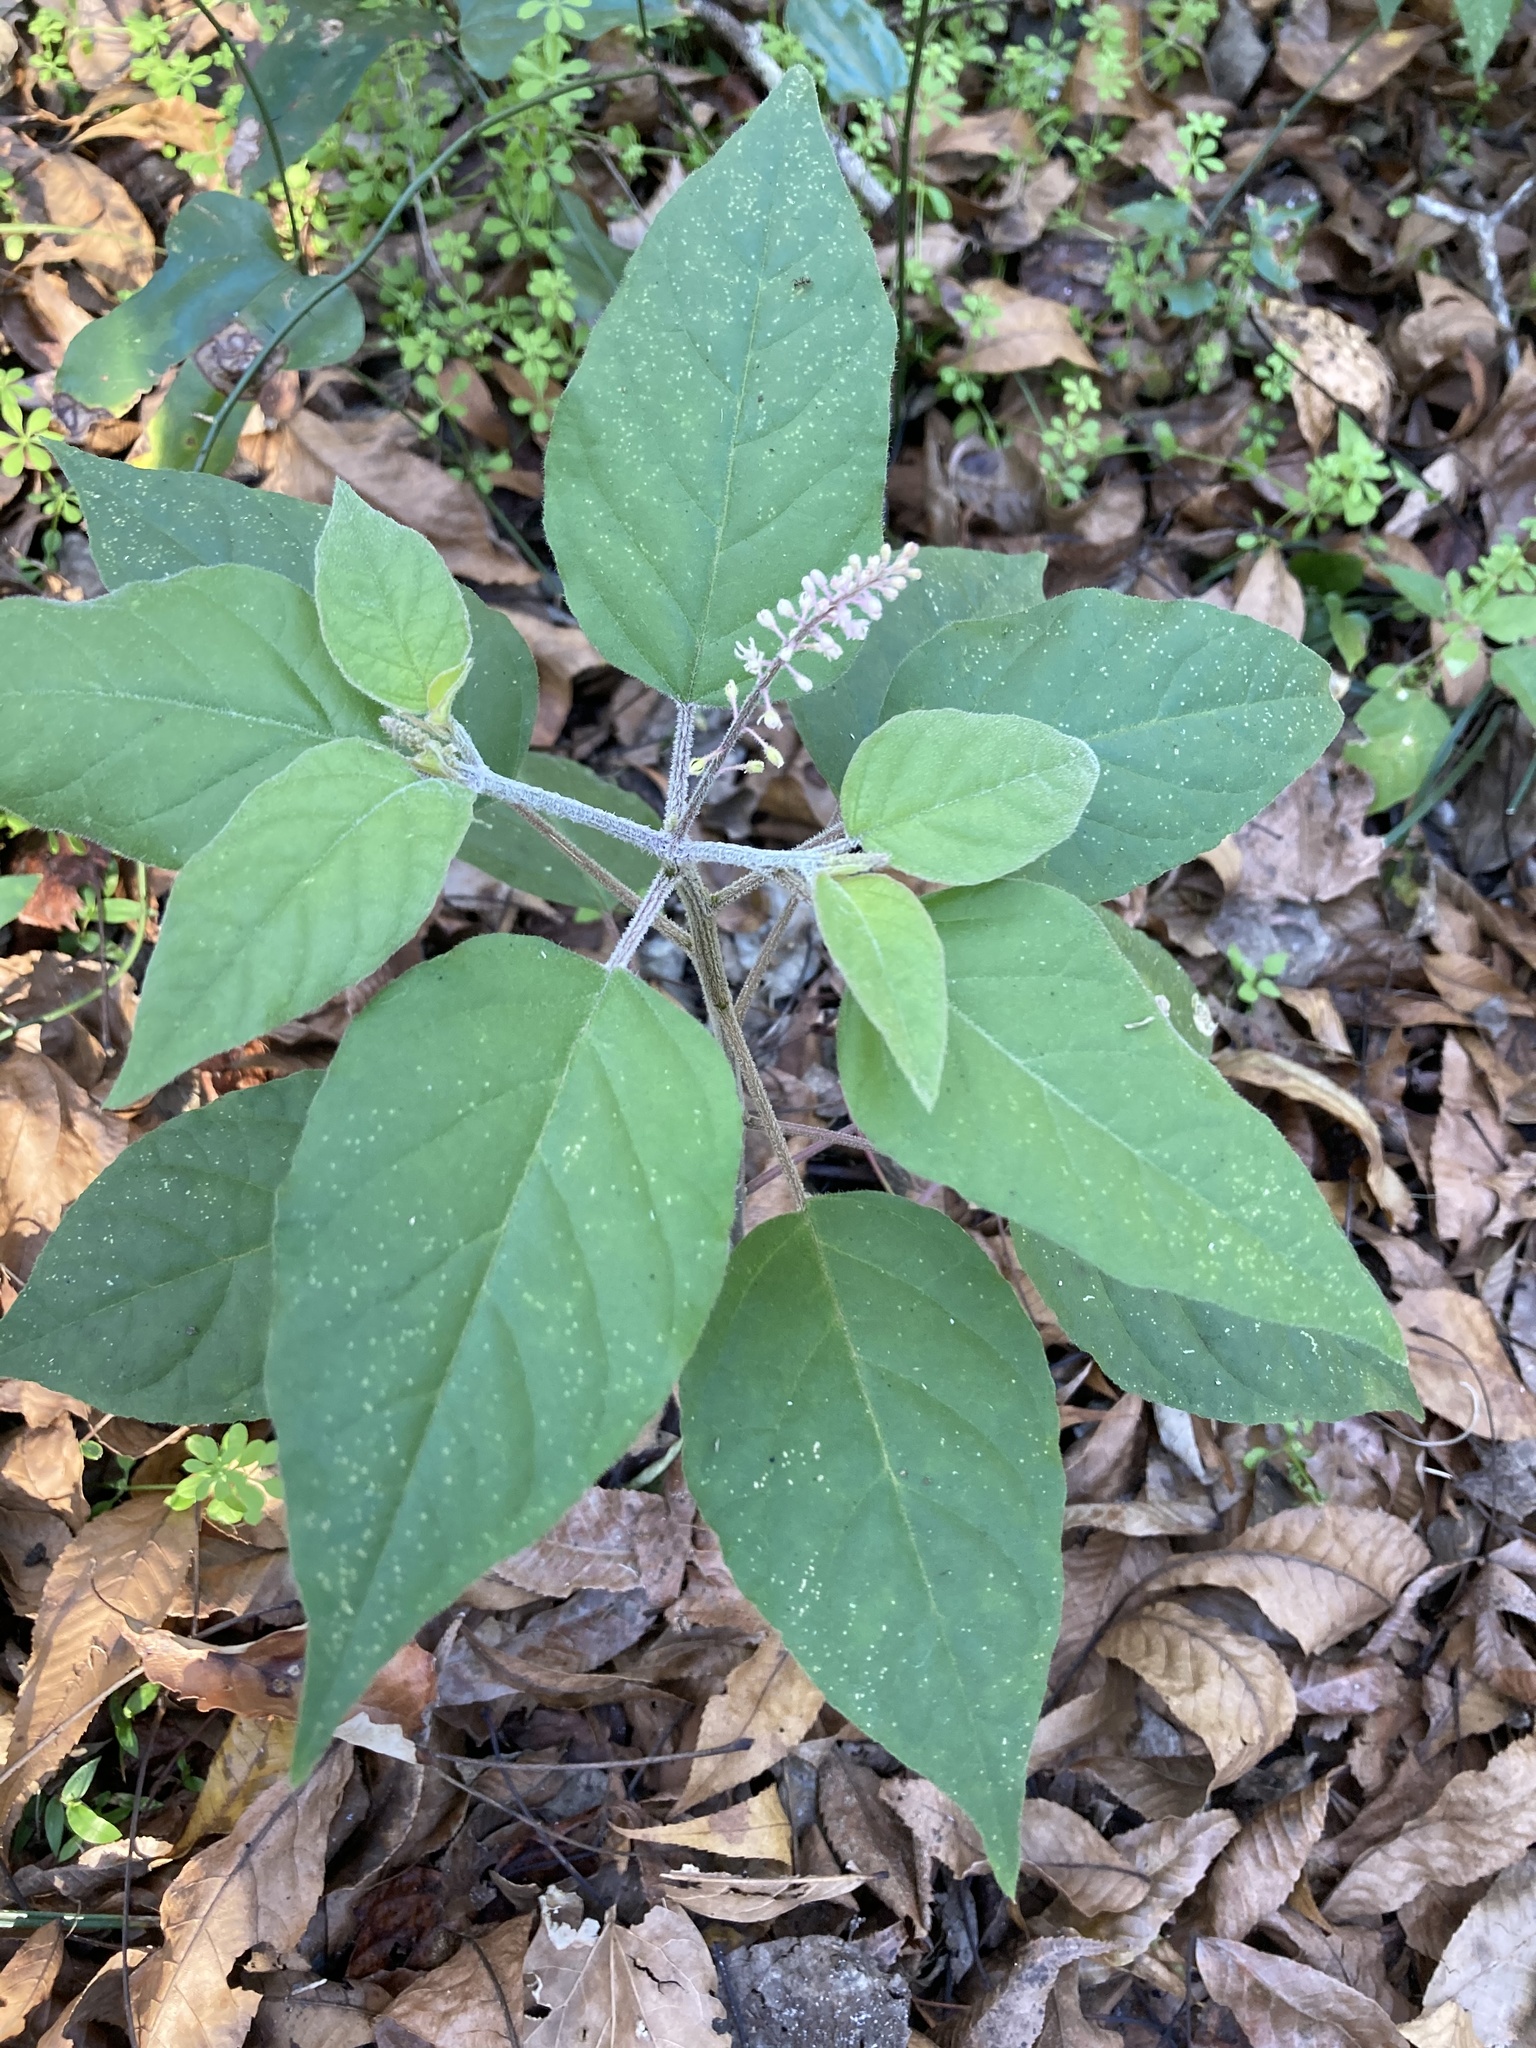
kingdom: Plantae
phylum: Tracheophyta
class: Magnoliopsida
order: Caryophyllales
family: Phytolaccaceae
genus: Rivina
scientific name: Rivina humilis
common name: Rougeplant
